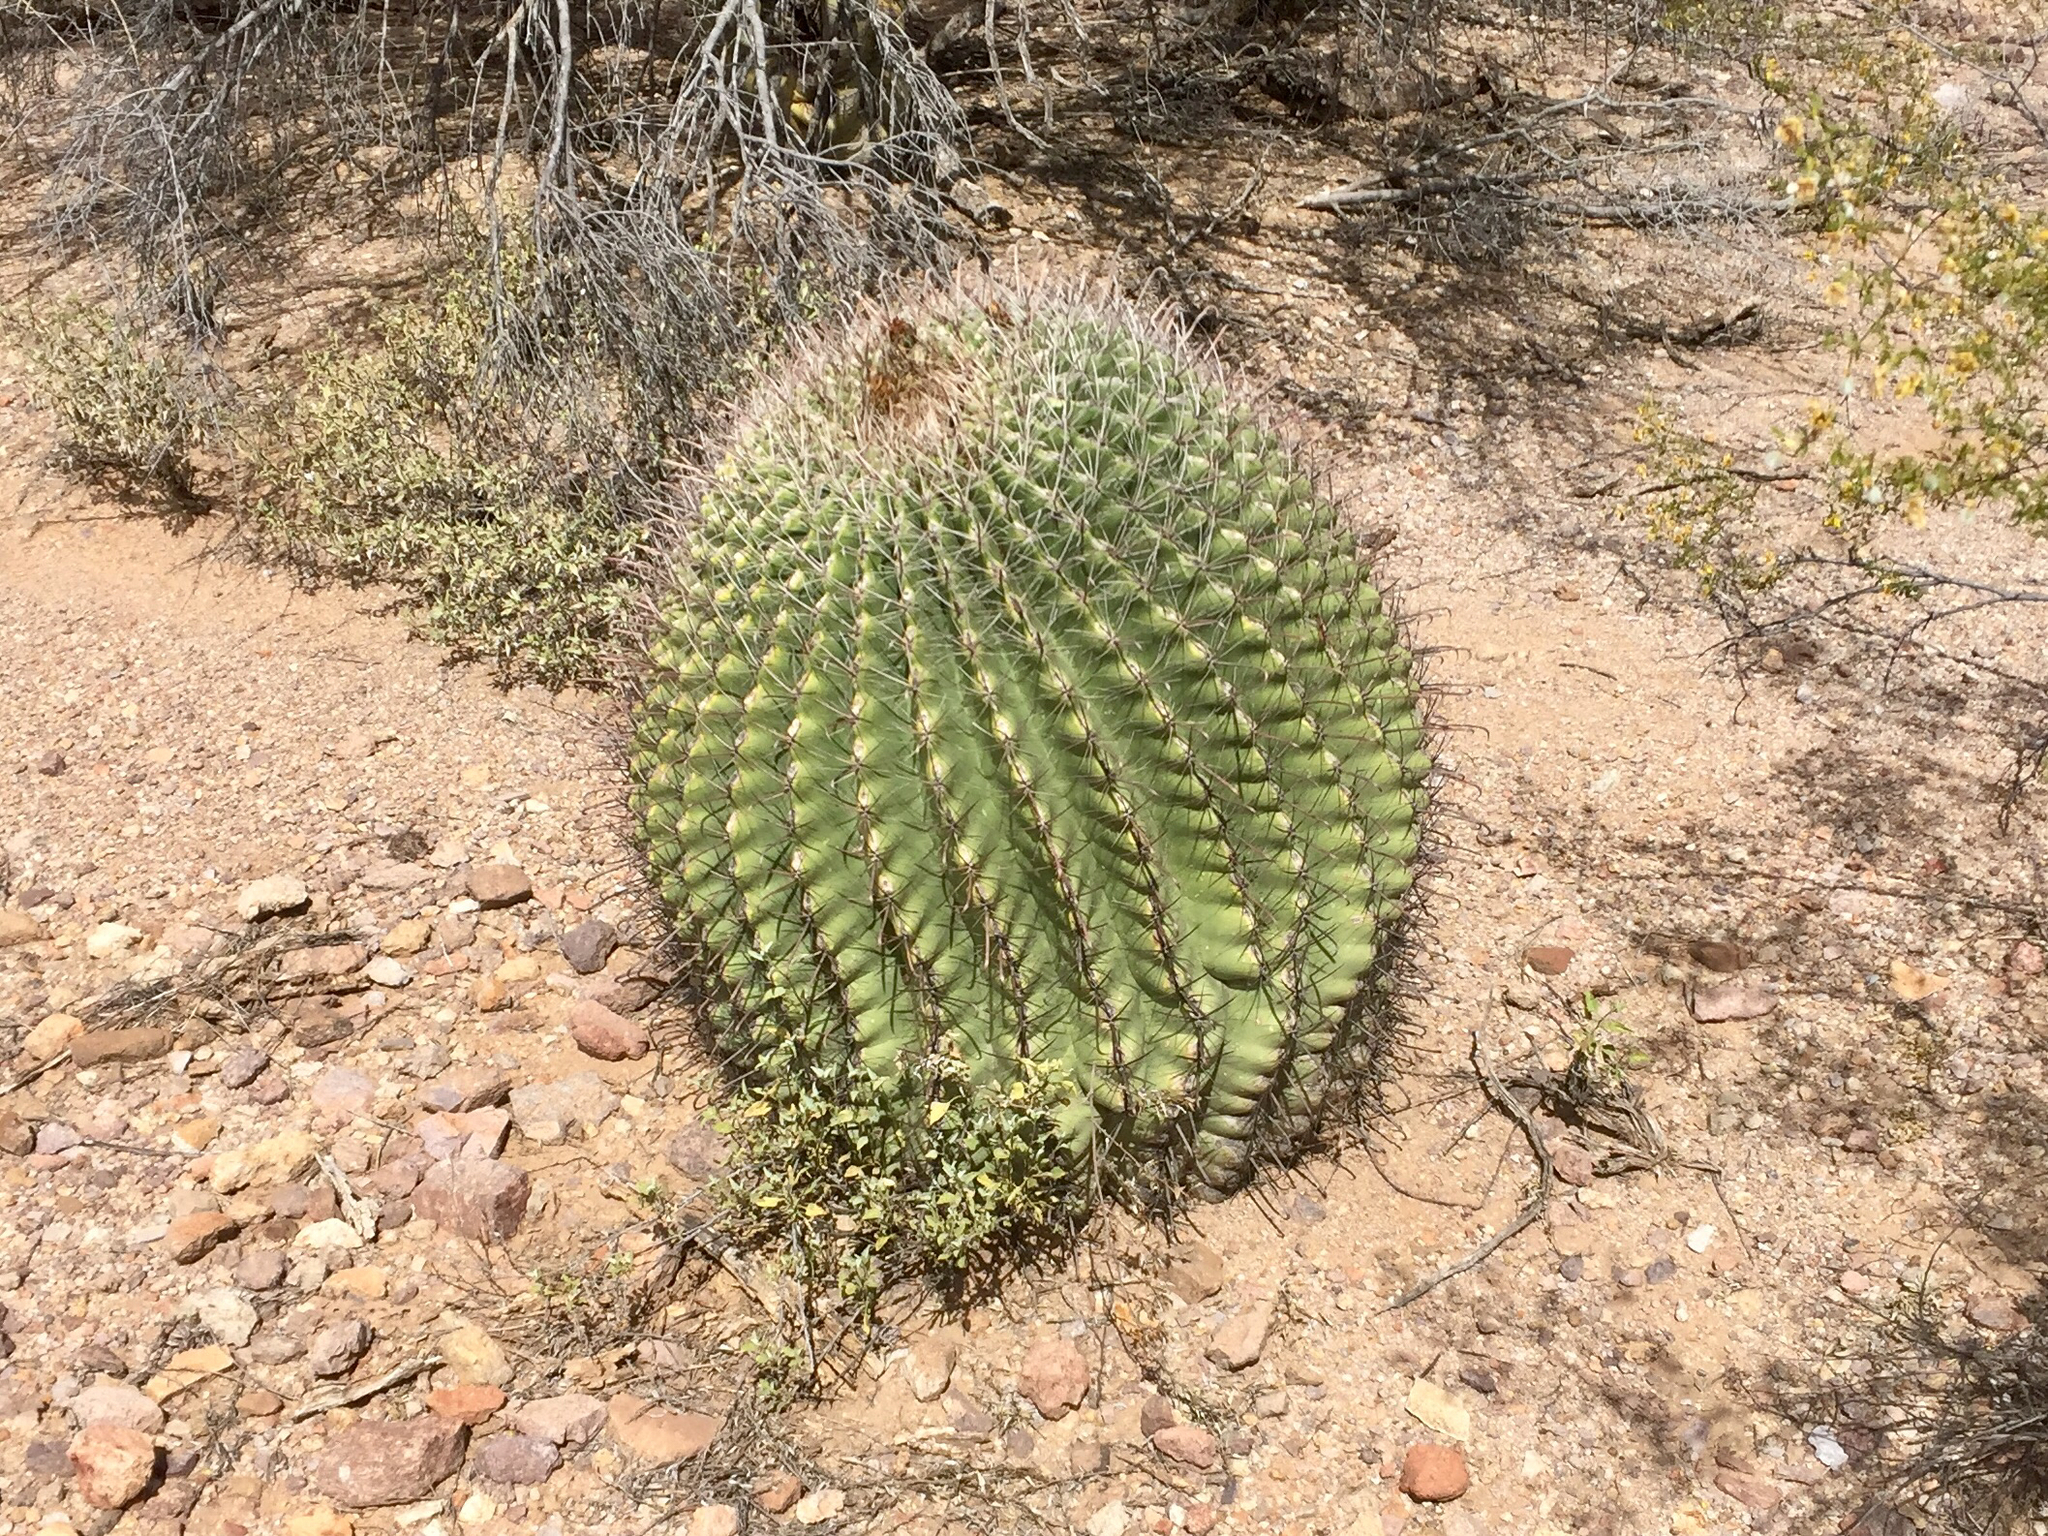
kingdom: Plantae
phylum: Tracheophyta
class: Magnoliopsida
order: Caryophyllales
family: Cactaceae
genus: Ferocactus
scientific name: Ferocactus wislizeni
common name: Candy barrel cactus
